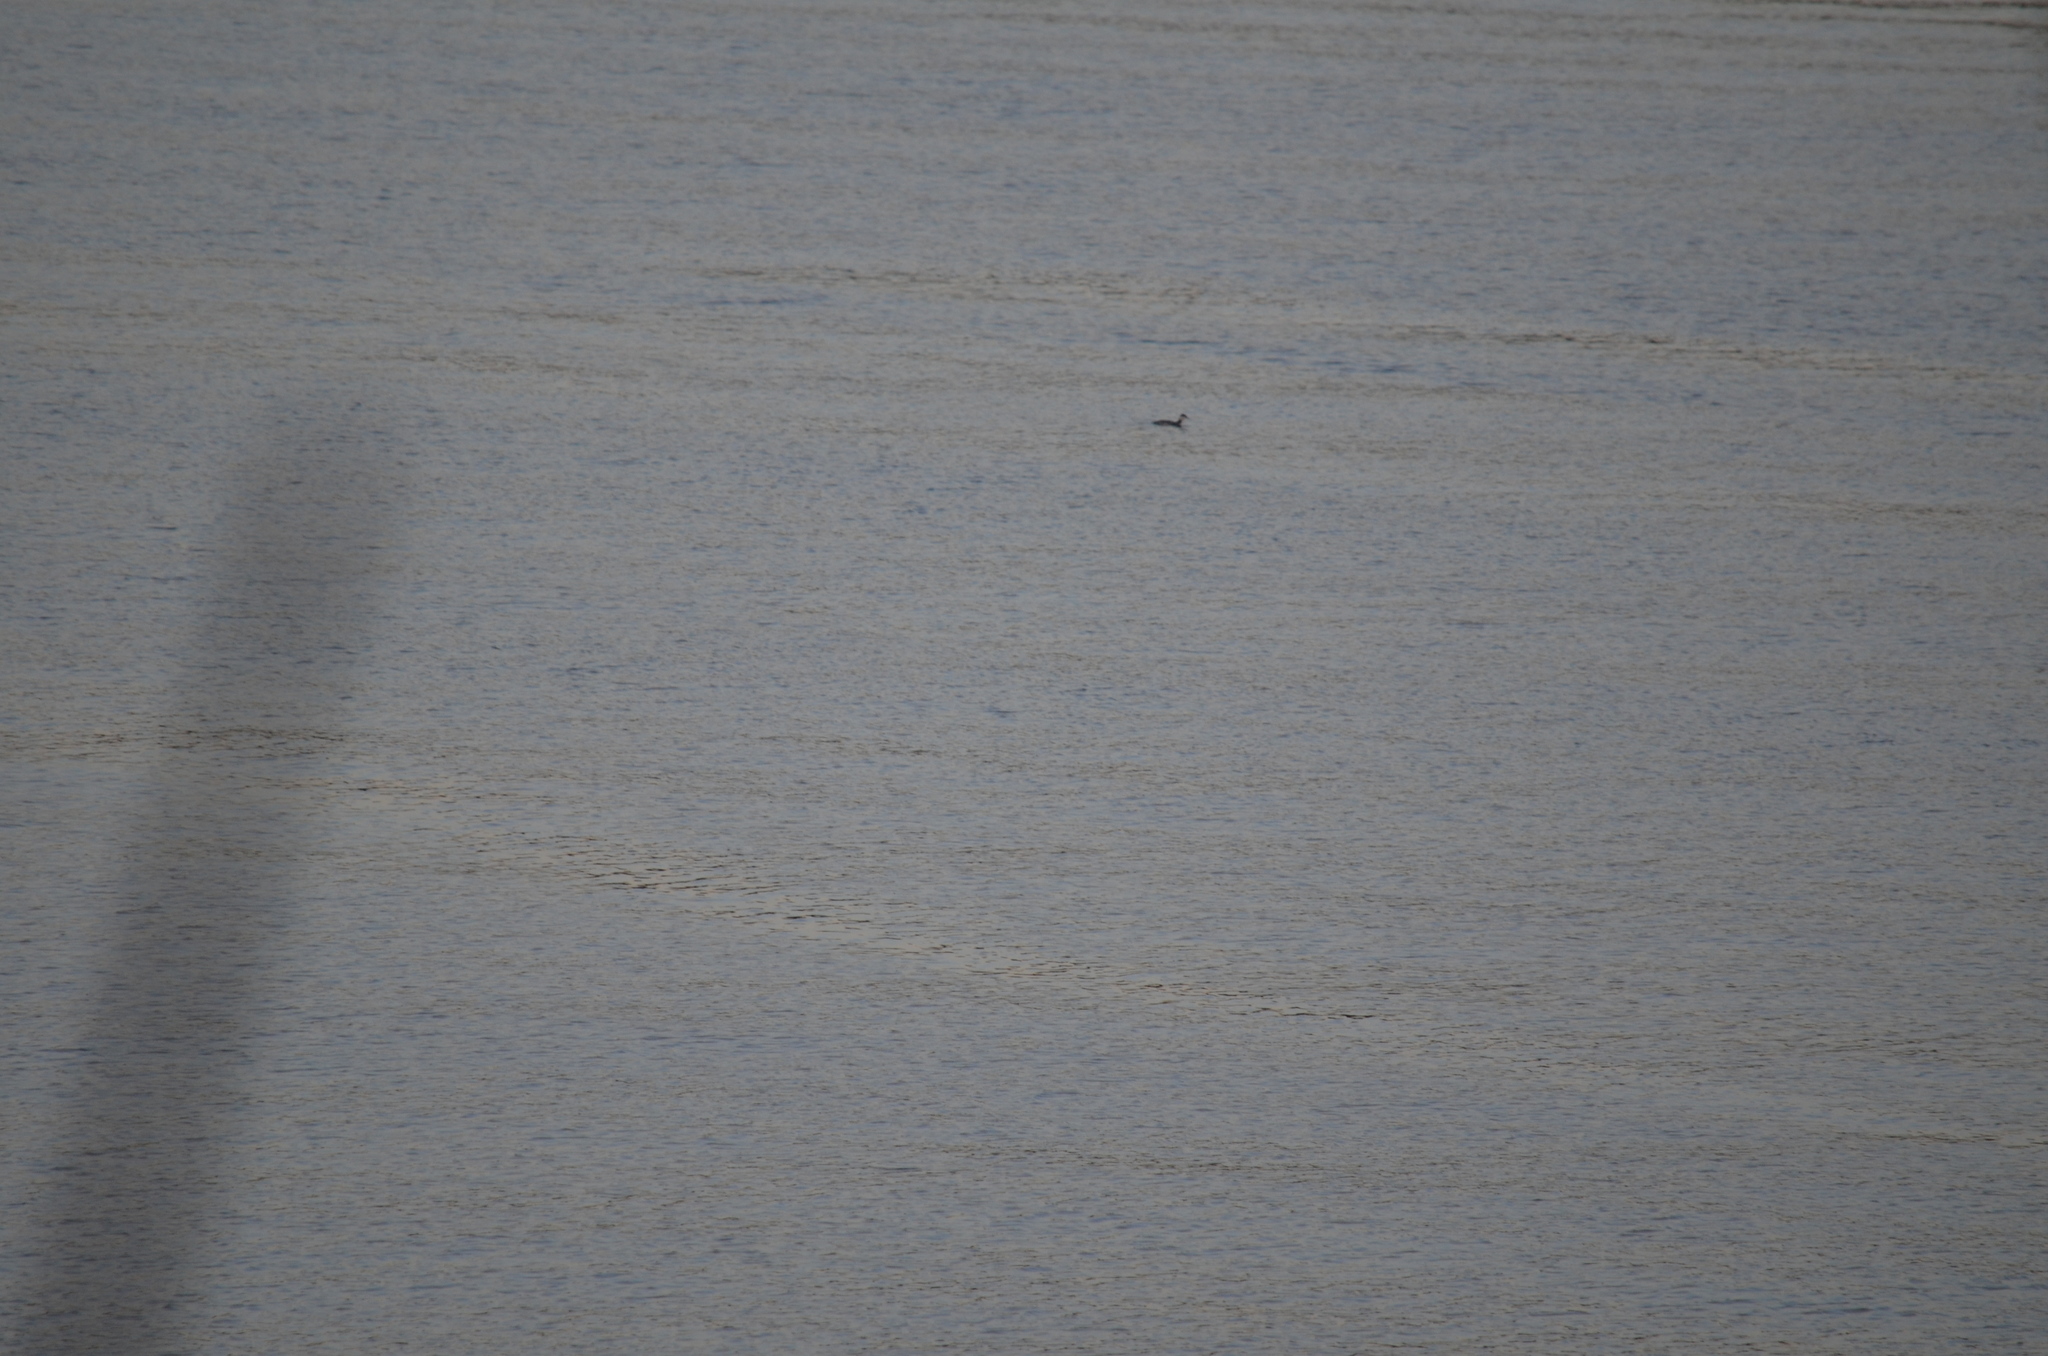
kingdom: Animalia
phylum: Chordata
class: Aves
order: Podicipediformes
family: Podicipedidae
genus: Podiceps
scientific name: Podiceps grisegena
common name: Red-necked grebe
